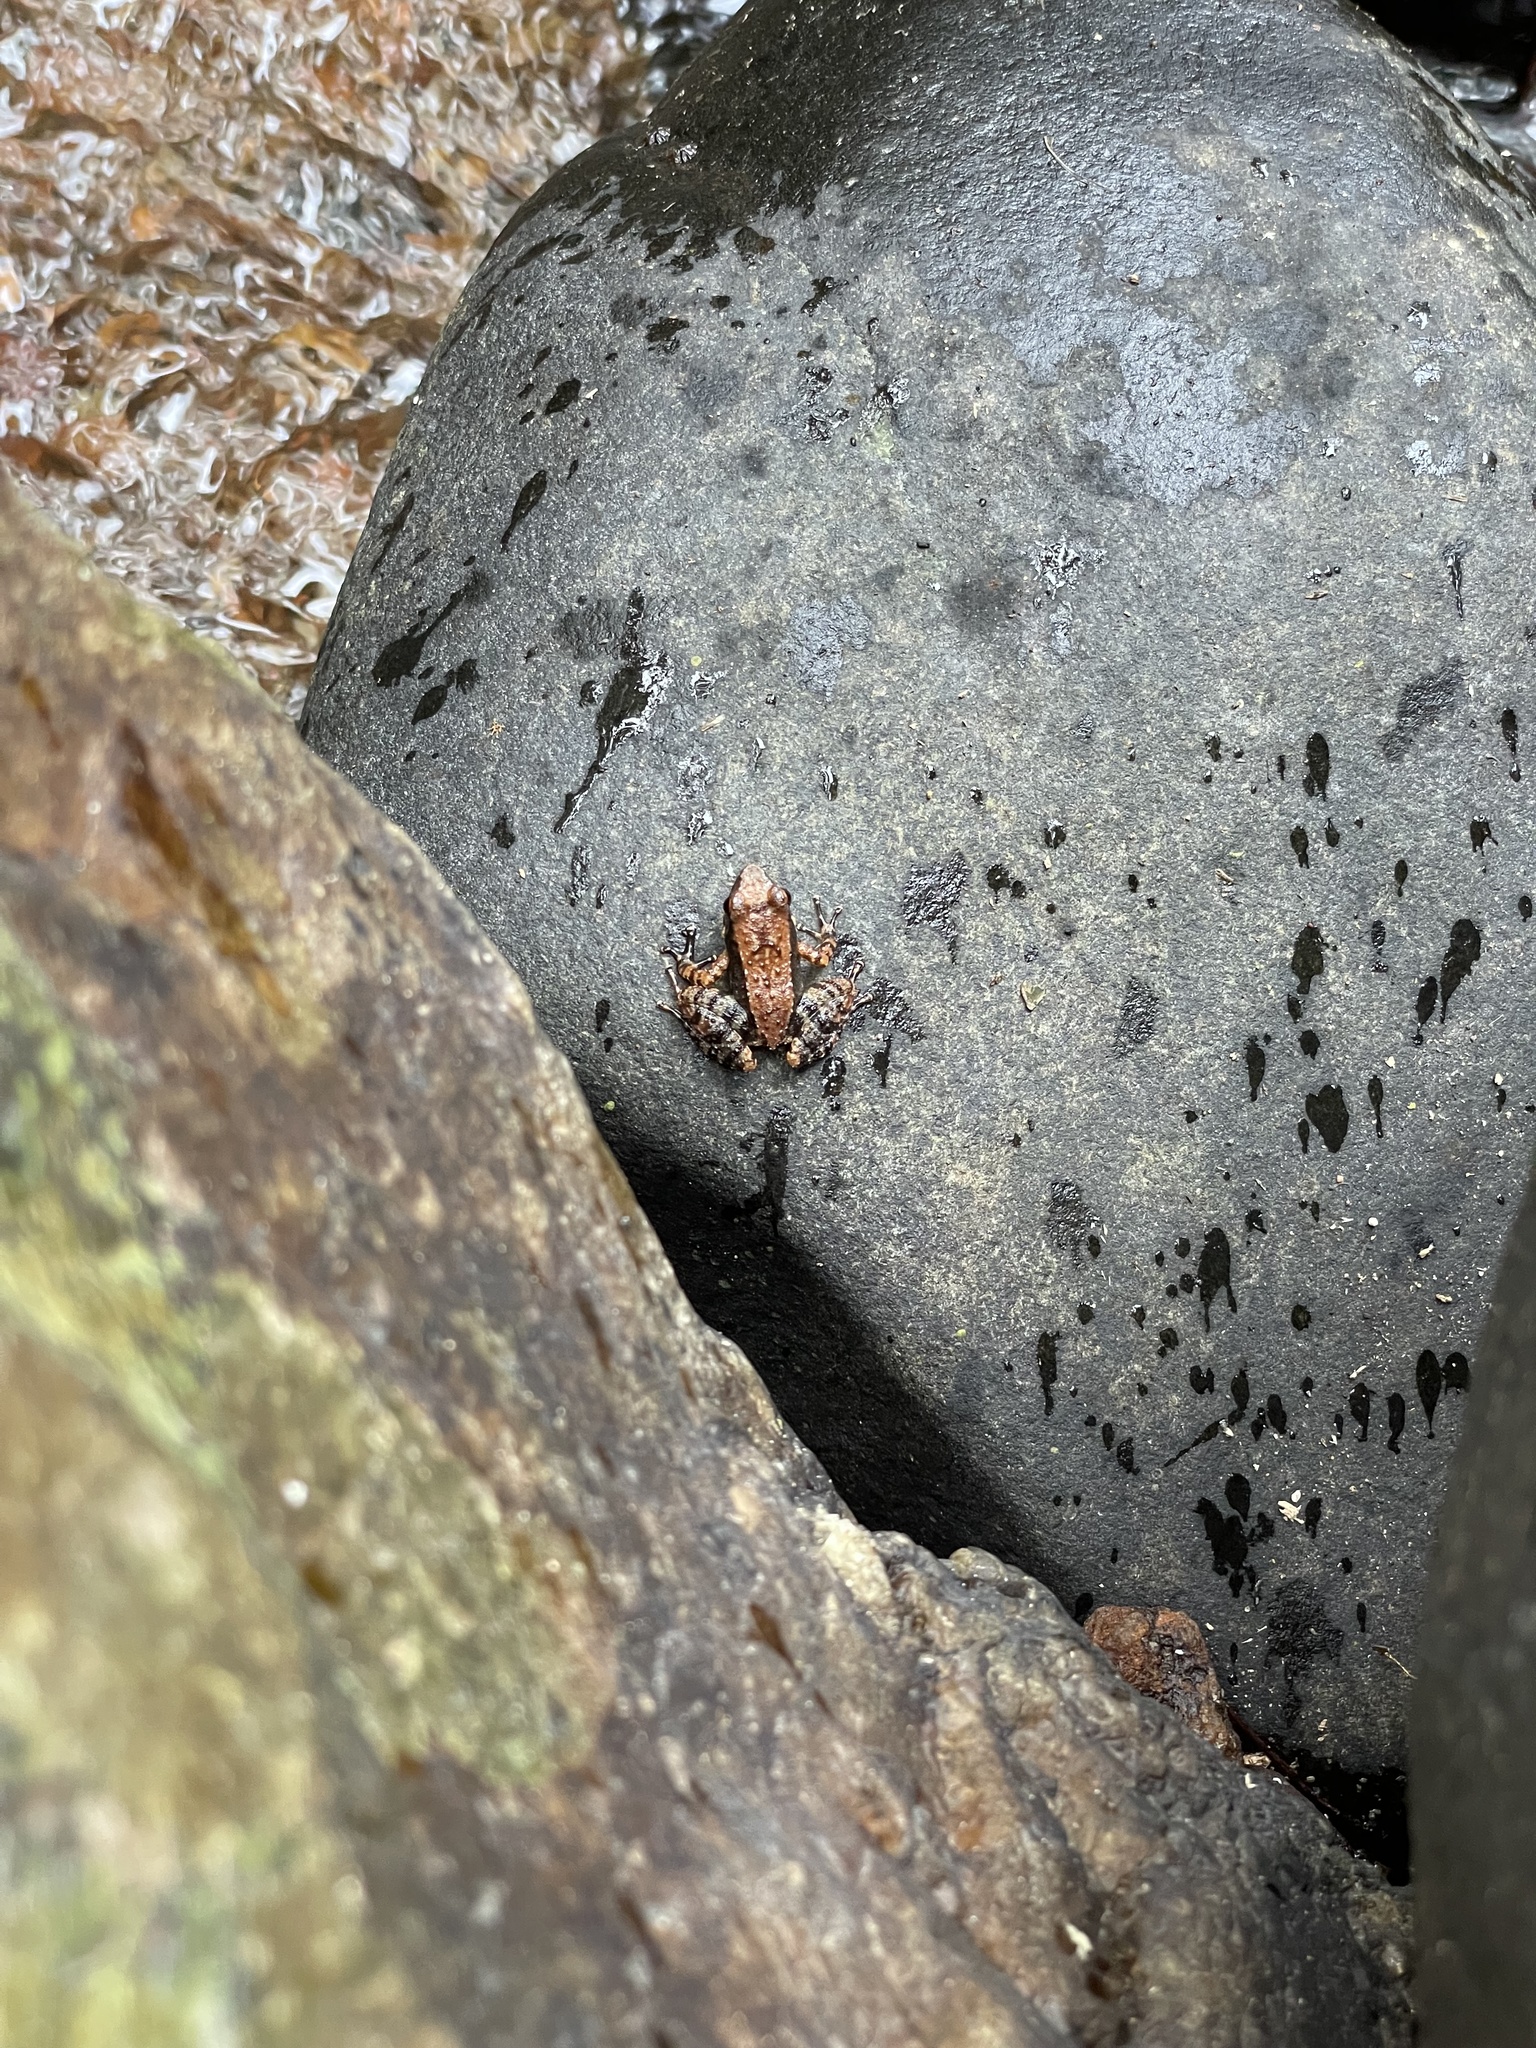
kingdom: Animalia
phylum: Chordata
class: Amphibia
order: Anura
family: Micrixalidae
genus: Micrixalus
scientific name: Micrixalus elegans
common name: Elegant dancing frog
